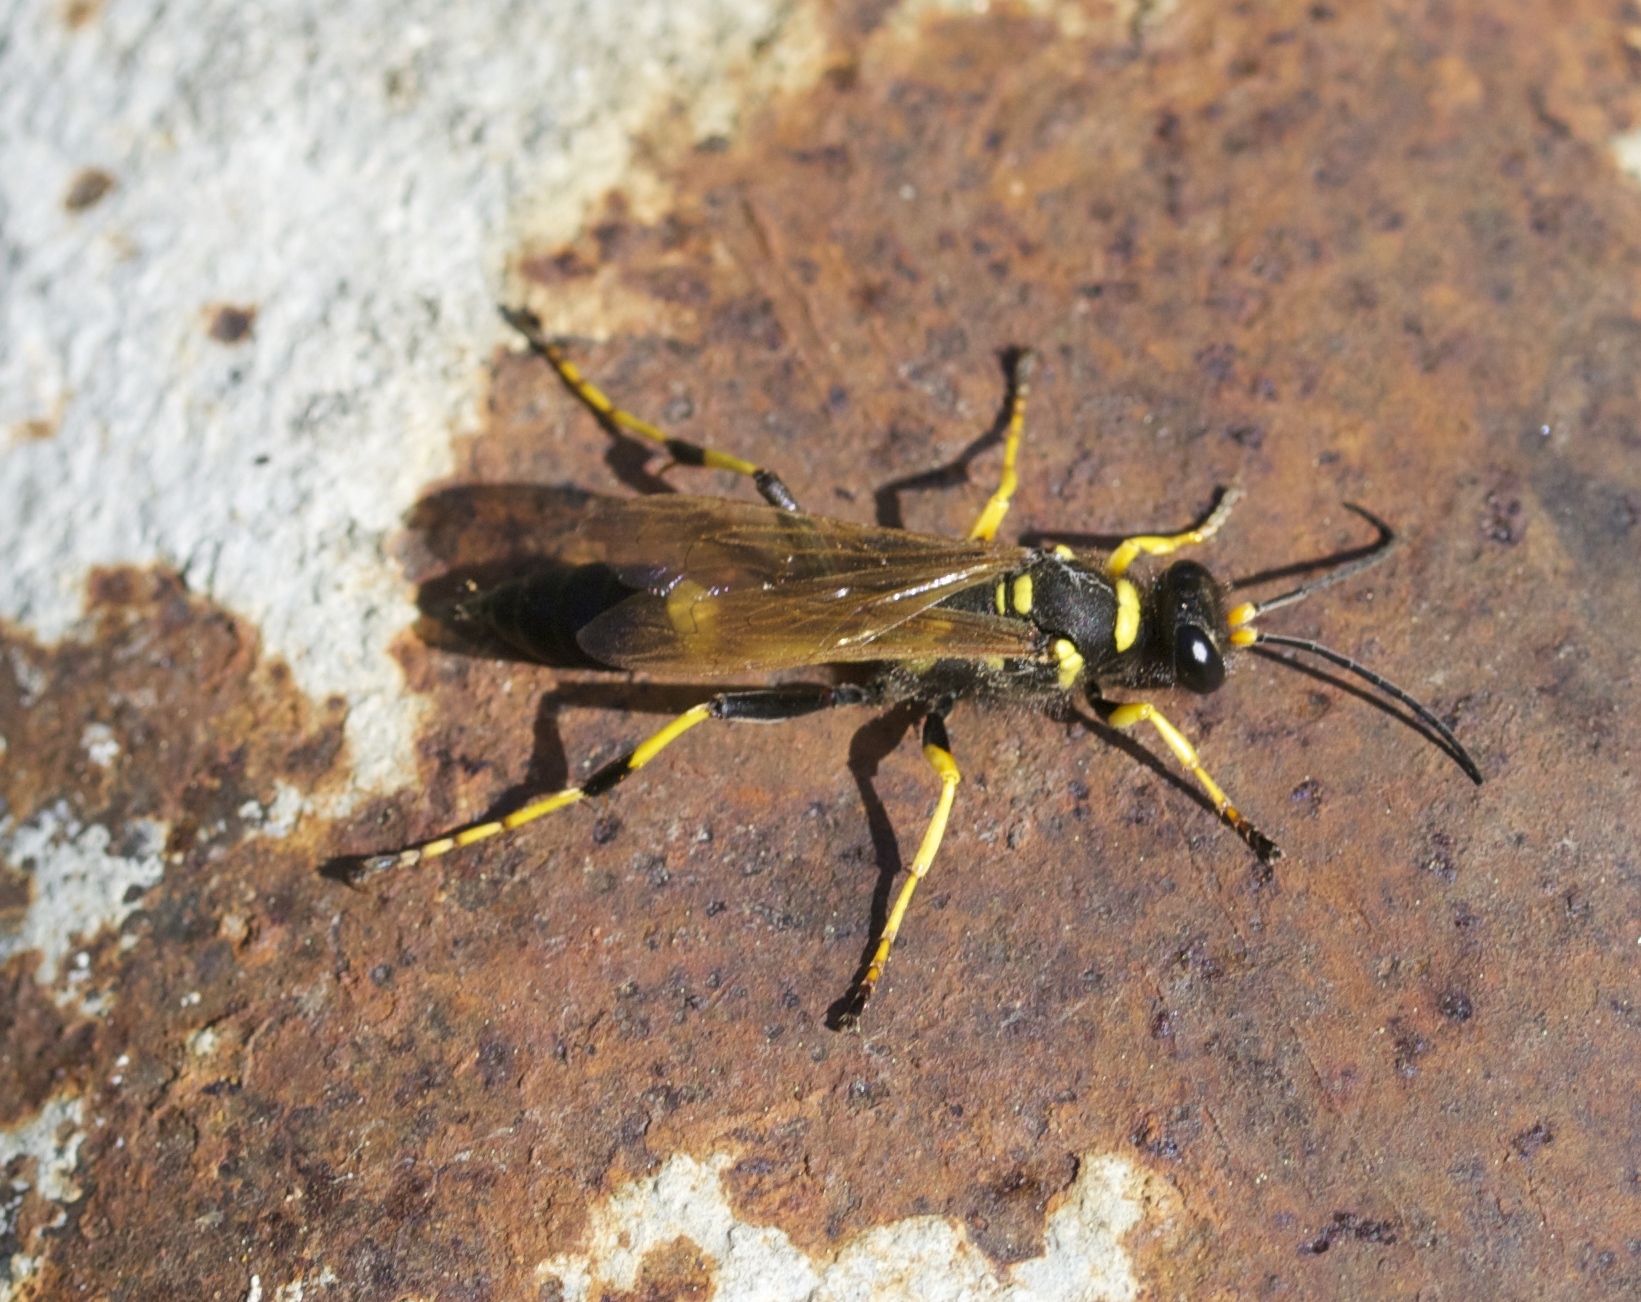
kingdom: Animalia
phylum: Arthropoda
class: Insecta
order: Hymenoptera
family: Sphecidae
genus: Sceliphron
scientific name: Sceliphron caementarium
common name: Mud dauber
